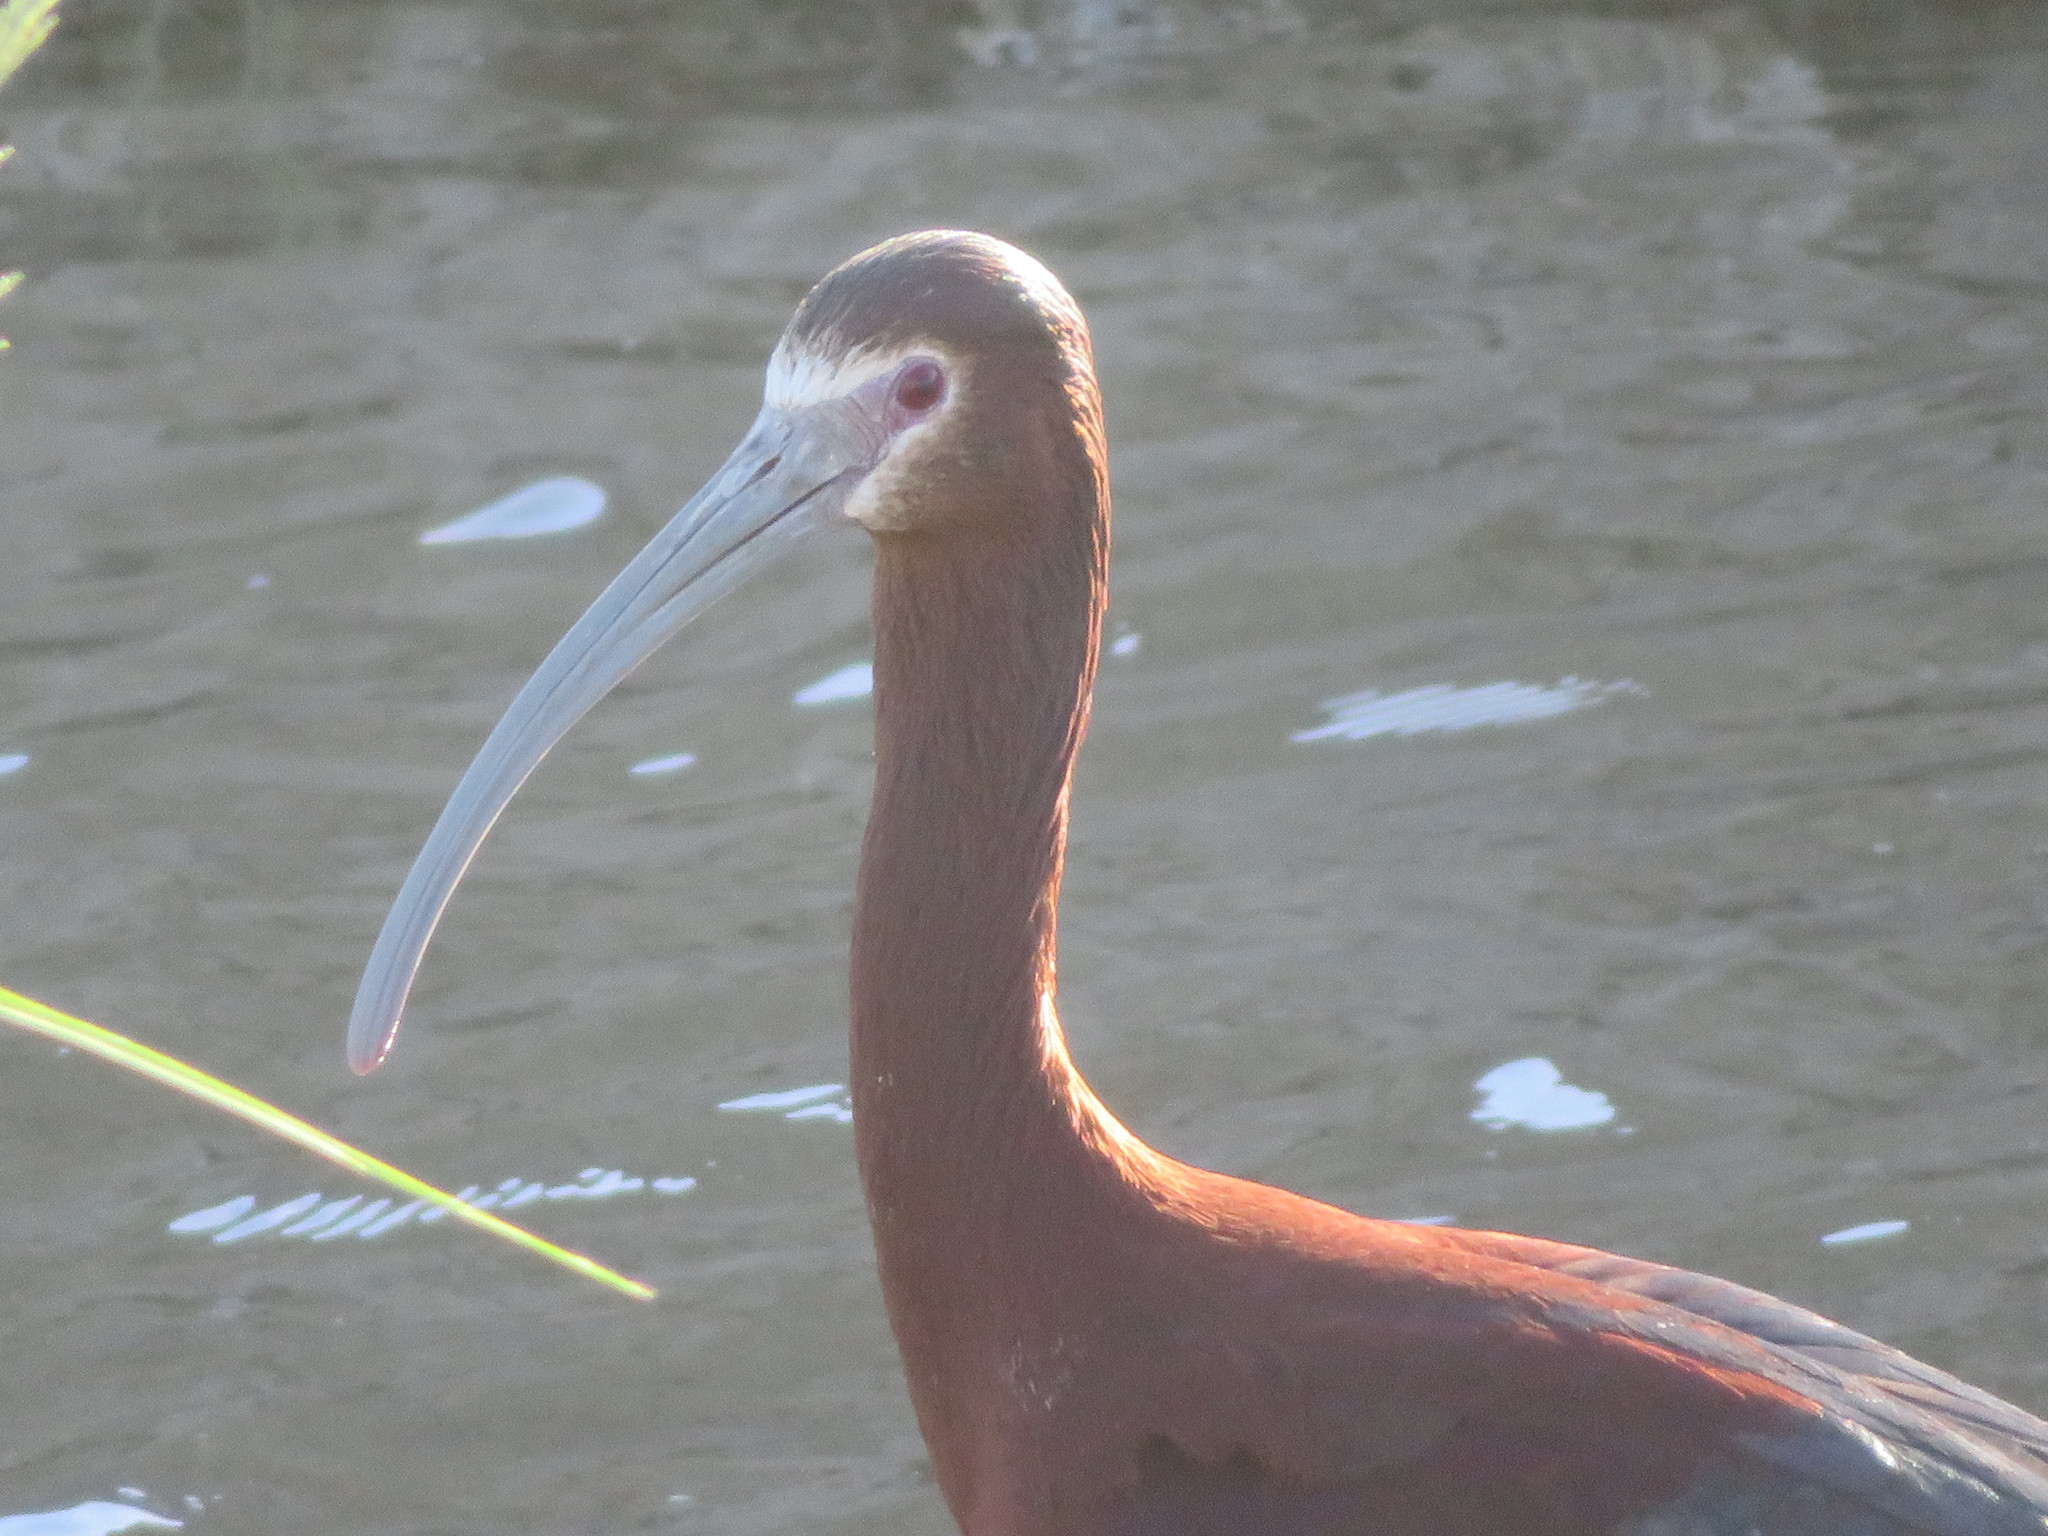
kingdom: Animalia
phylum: Chordata
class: Aves
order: Pelecaniformes
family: Threskiornithidae
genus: Plegadis
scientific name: Plegadis chihi
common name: White-faced ibis
